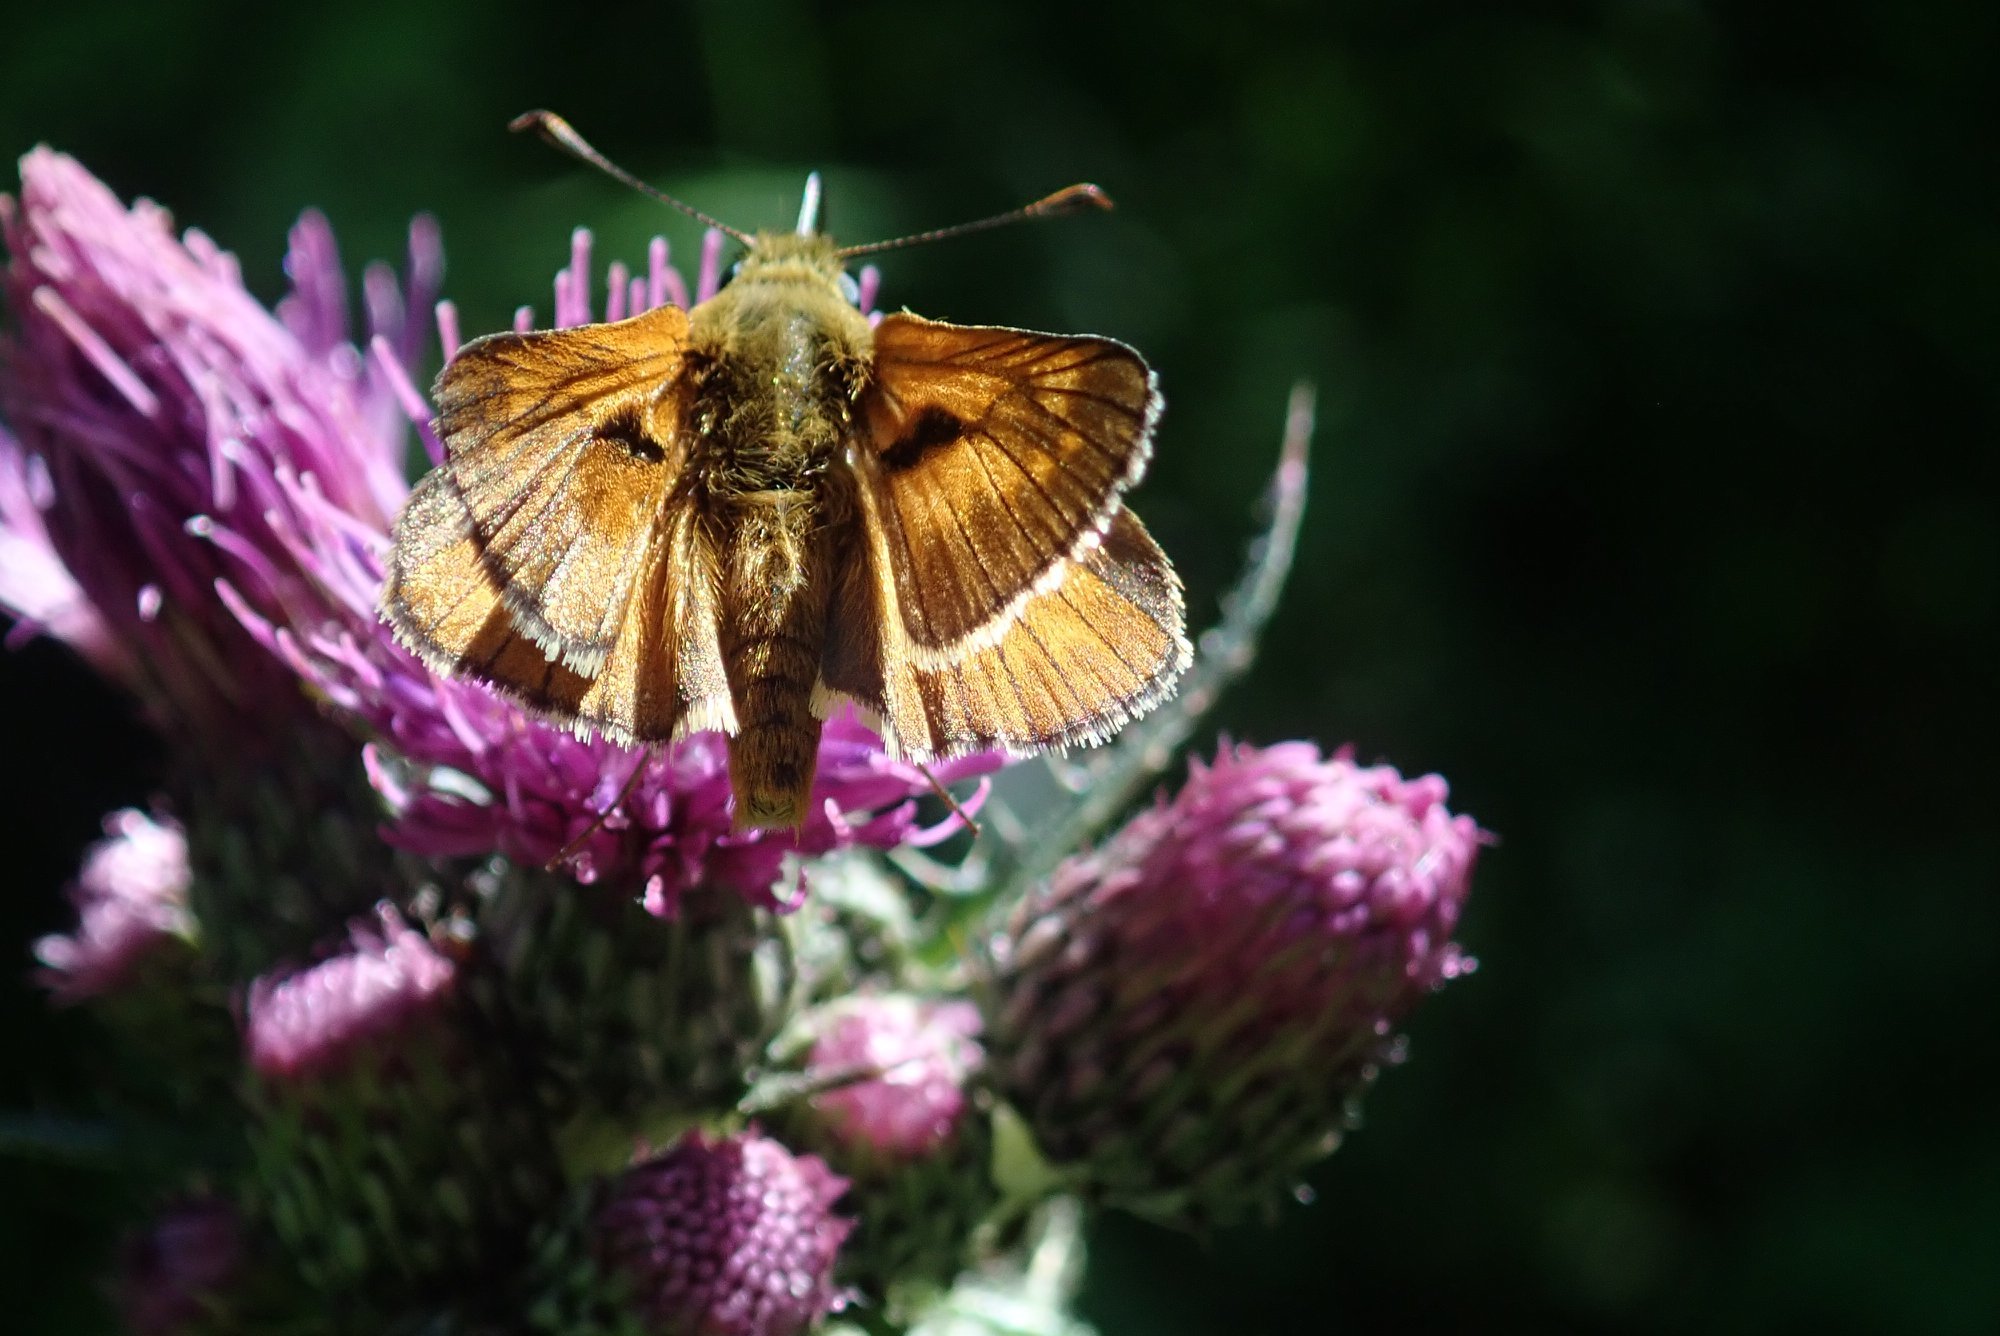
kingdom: Animalia
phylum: Arthropoda
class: Insecta
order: Lepidoptera
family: Hesperiidae
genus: Ochlodes
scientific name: Ochlodes venata
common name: Large skipper
